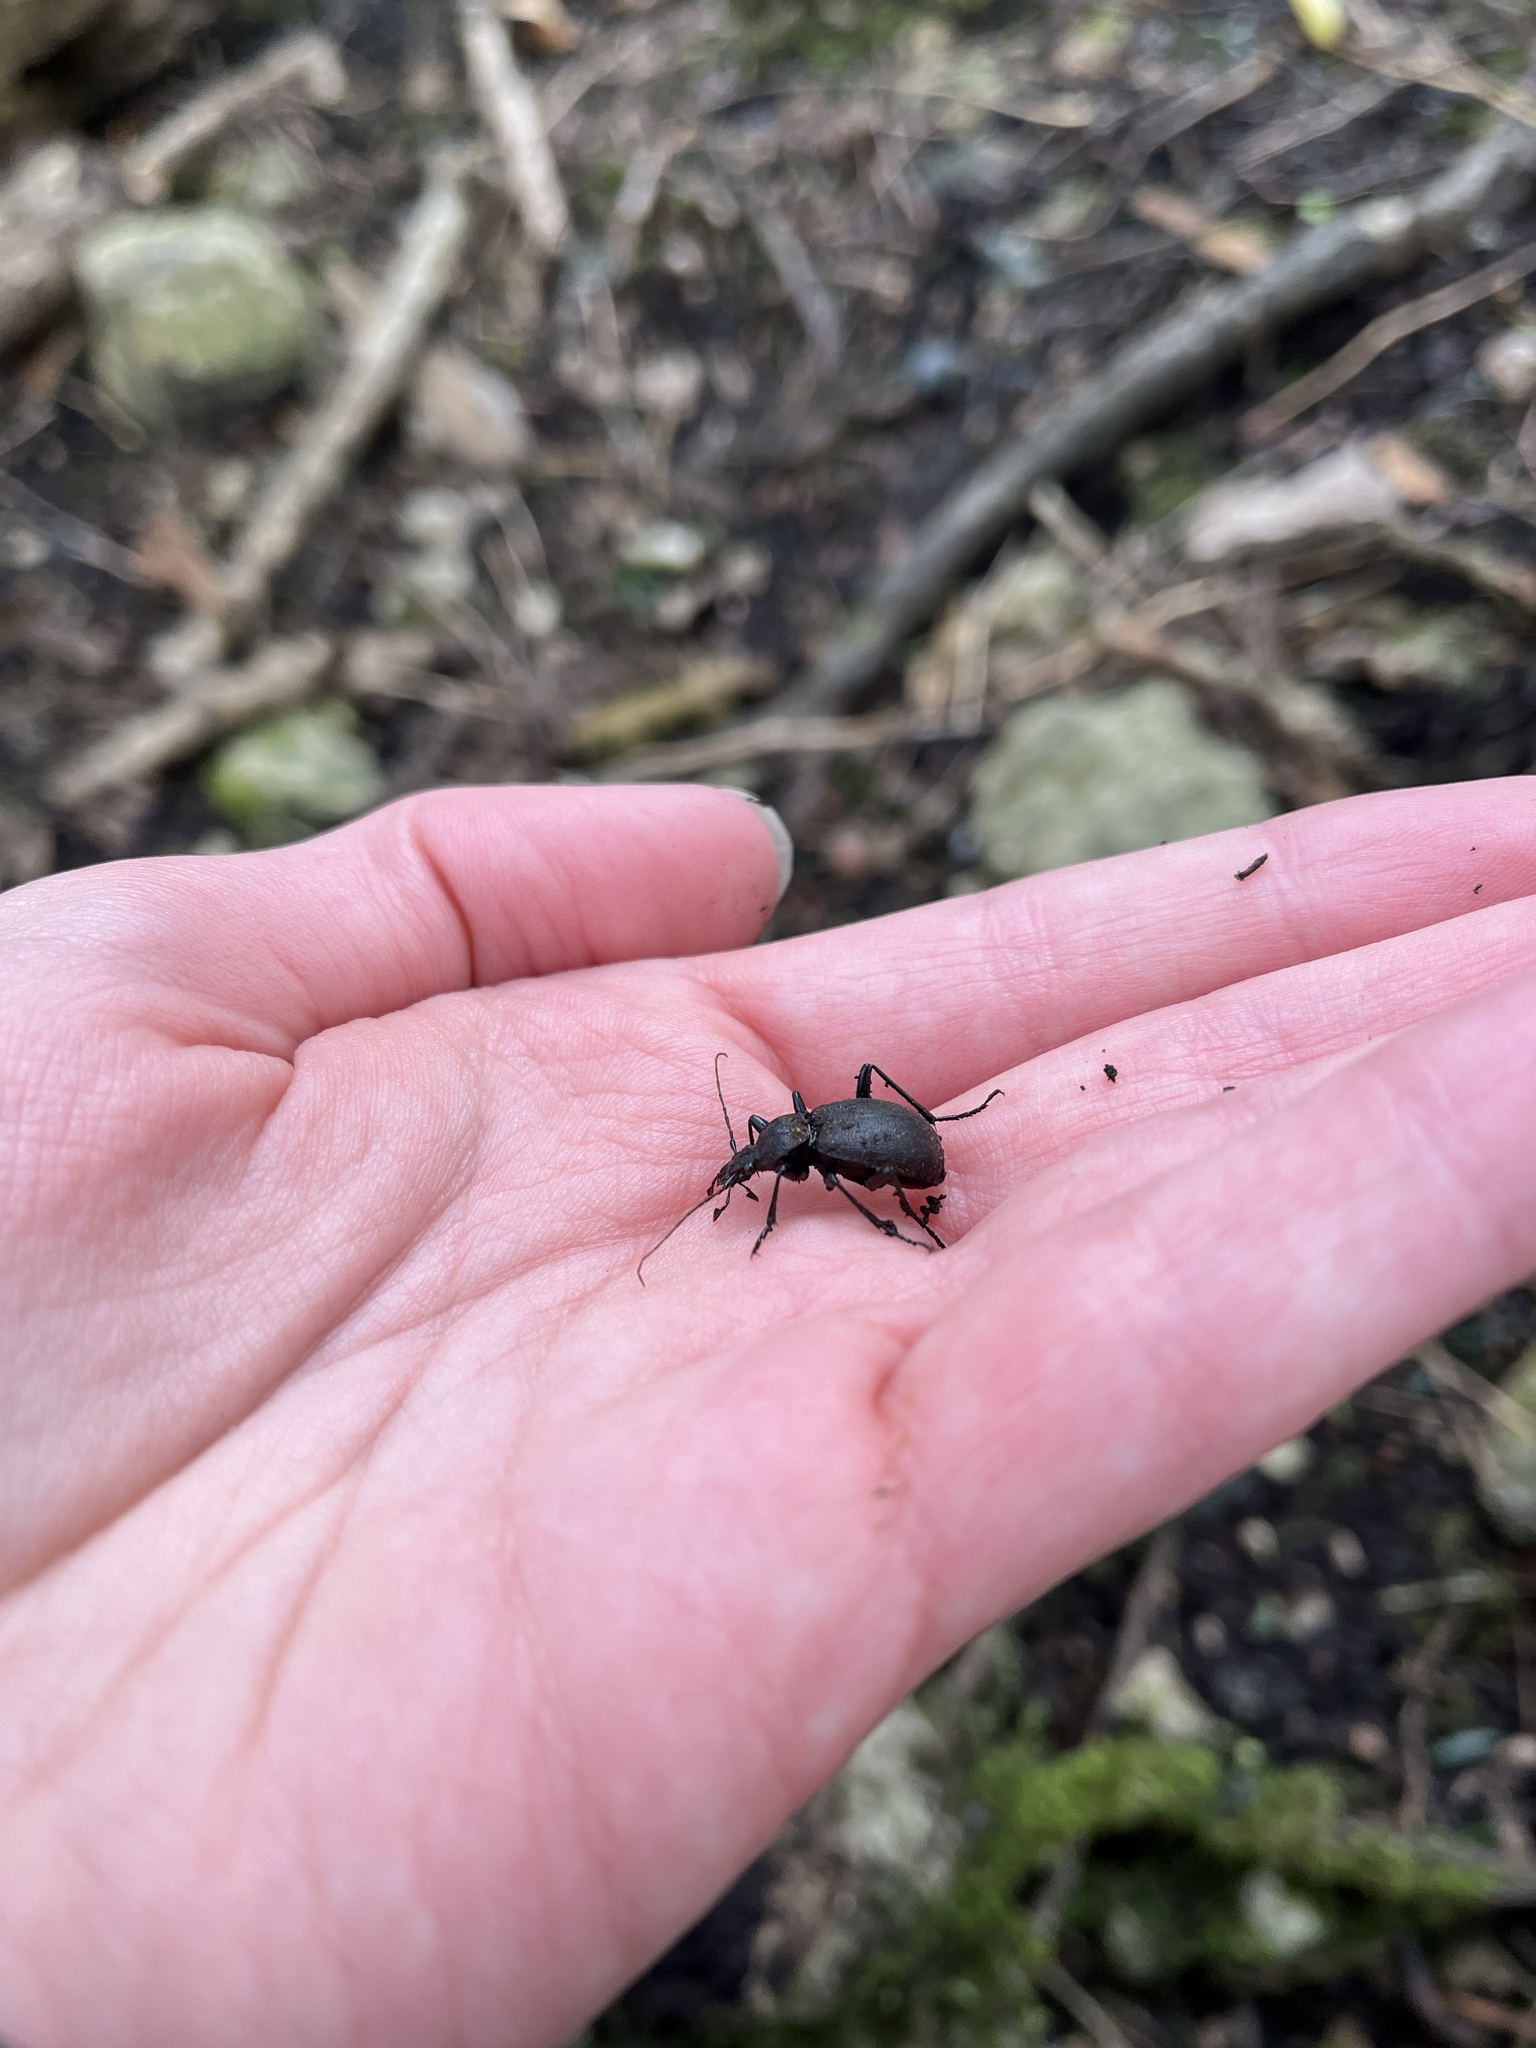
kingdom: Animalia
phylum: Arthropoda
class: Insecta
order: Coleoptera
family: Carabidae
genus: Cychrus
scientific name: Cychrus caraboides
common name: Snail hunter
